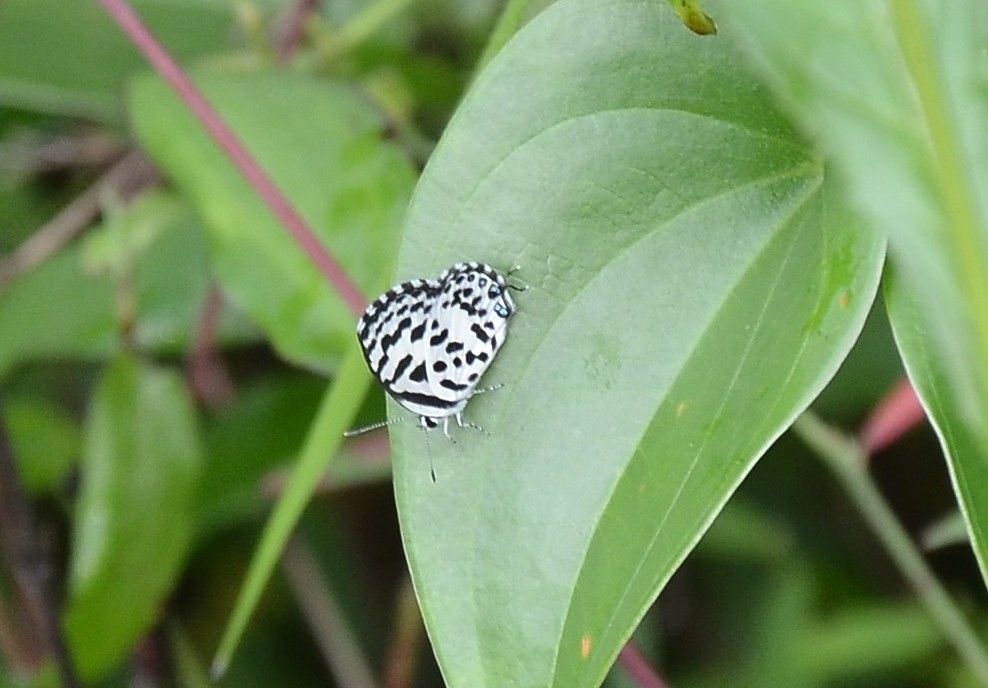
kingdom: Animalia
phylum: Arthropoda
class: Insecta
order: Lepidoptera
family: Lycaenidae
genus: Castalius
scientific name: Castalius rosimon
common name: Common pierrot
